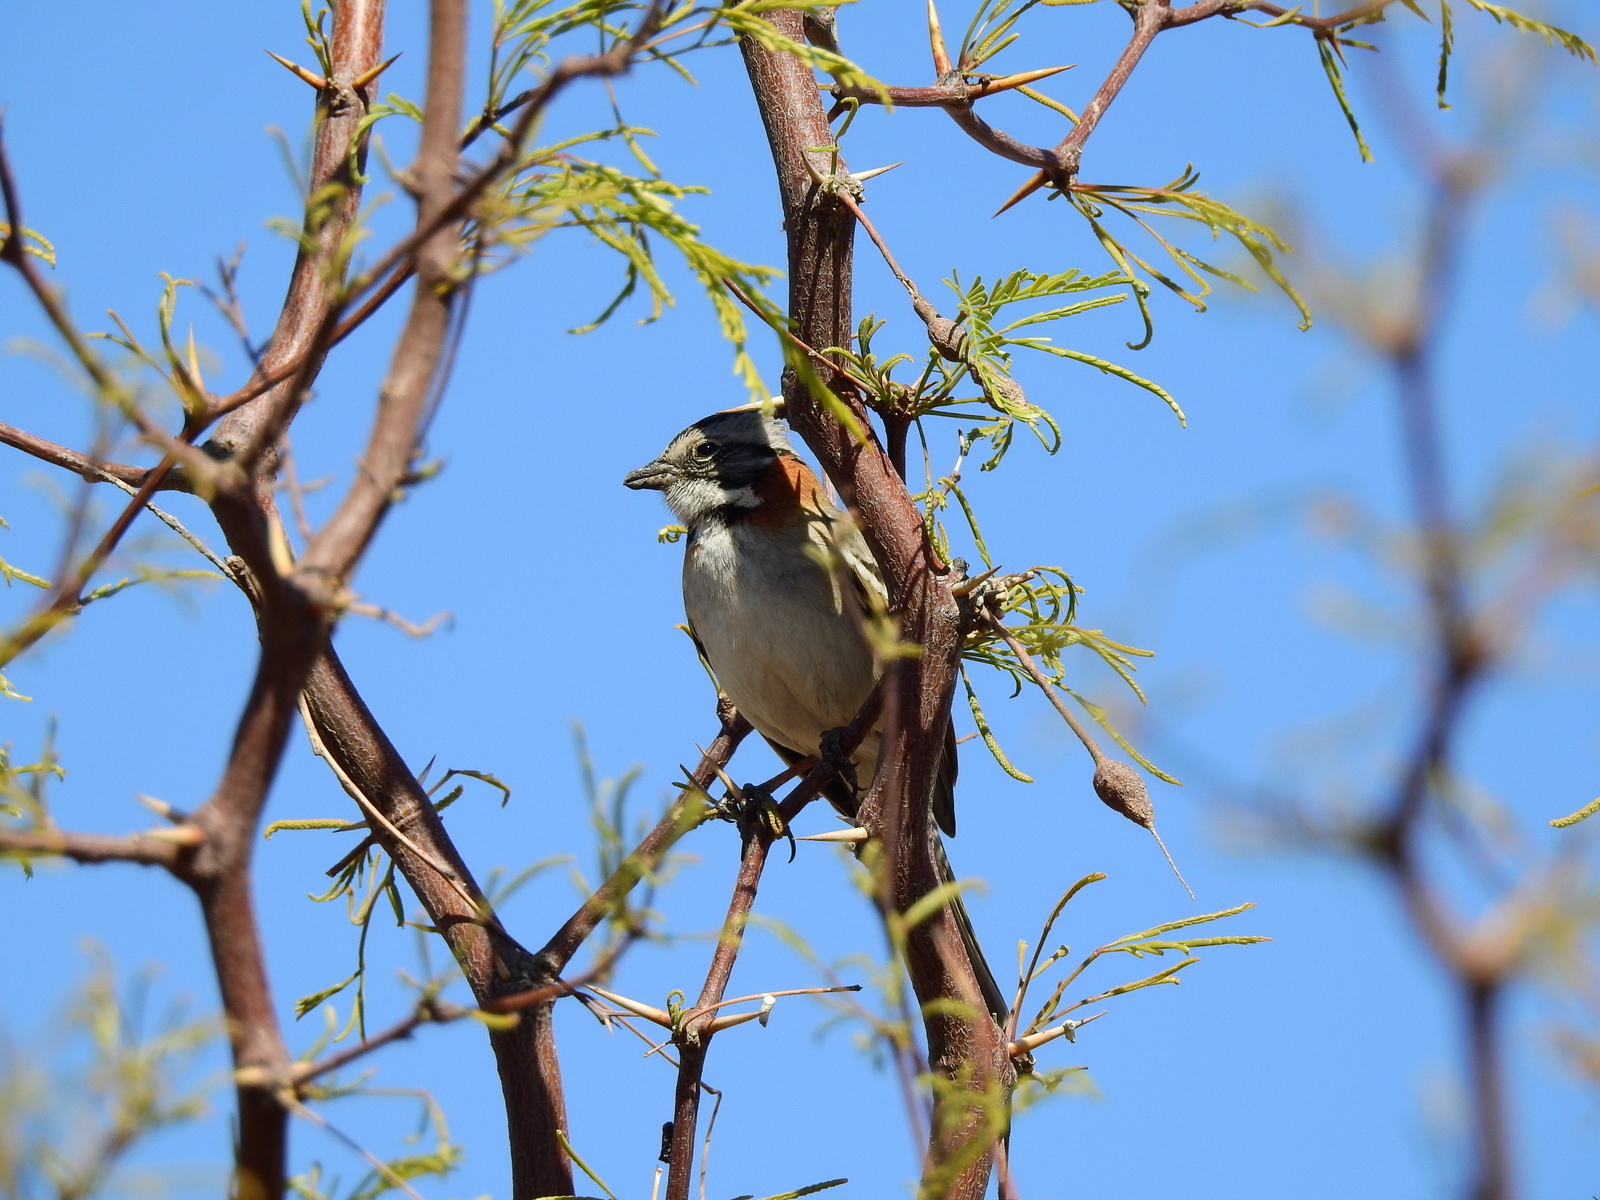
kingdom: Animalia
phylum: Chordata
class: Aves
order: Passeriformes
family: Passerellidae
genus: Zonotrichia
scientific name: Zonotrichia capensis
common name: Rufous-collared sparrow
